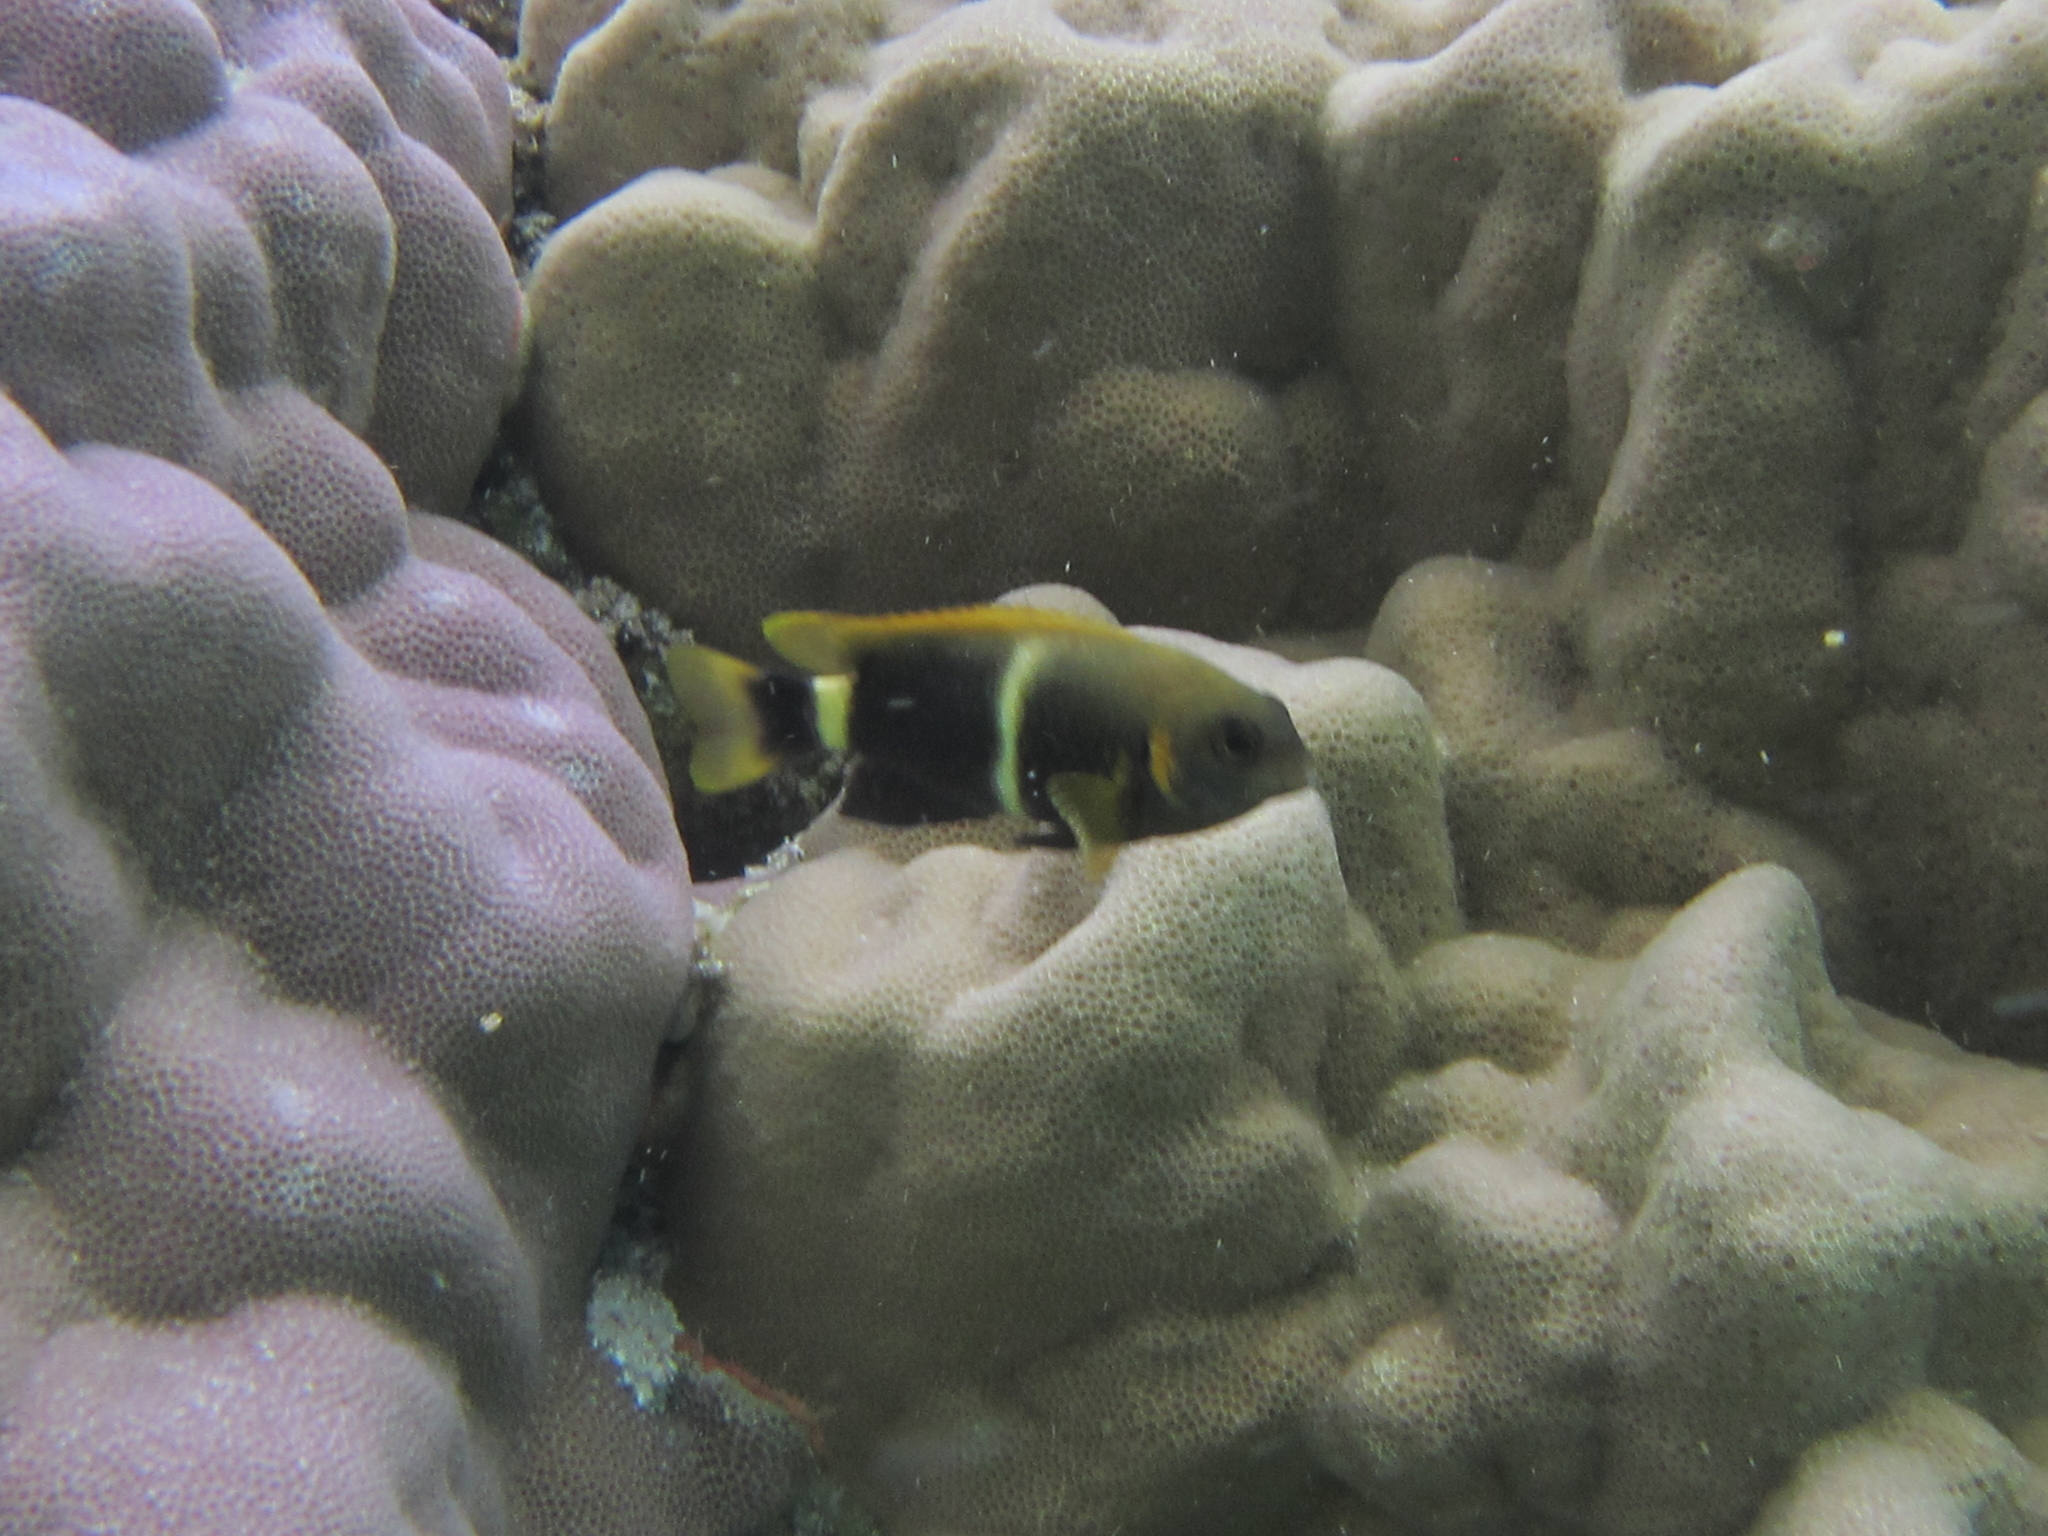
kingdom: Animalia
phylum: Chordata
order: Perciformes
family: Pomacentridae
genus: Chrysiptera
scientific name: Chrysiptera brownriggii
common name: Surge demoiselle
